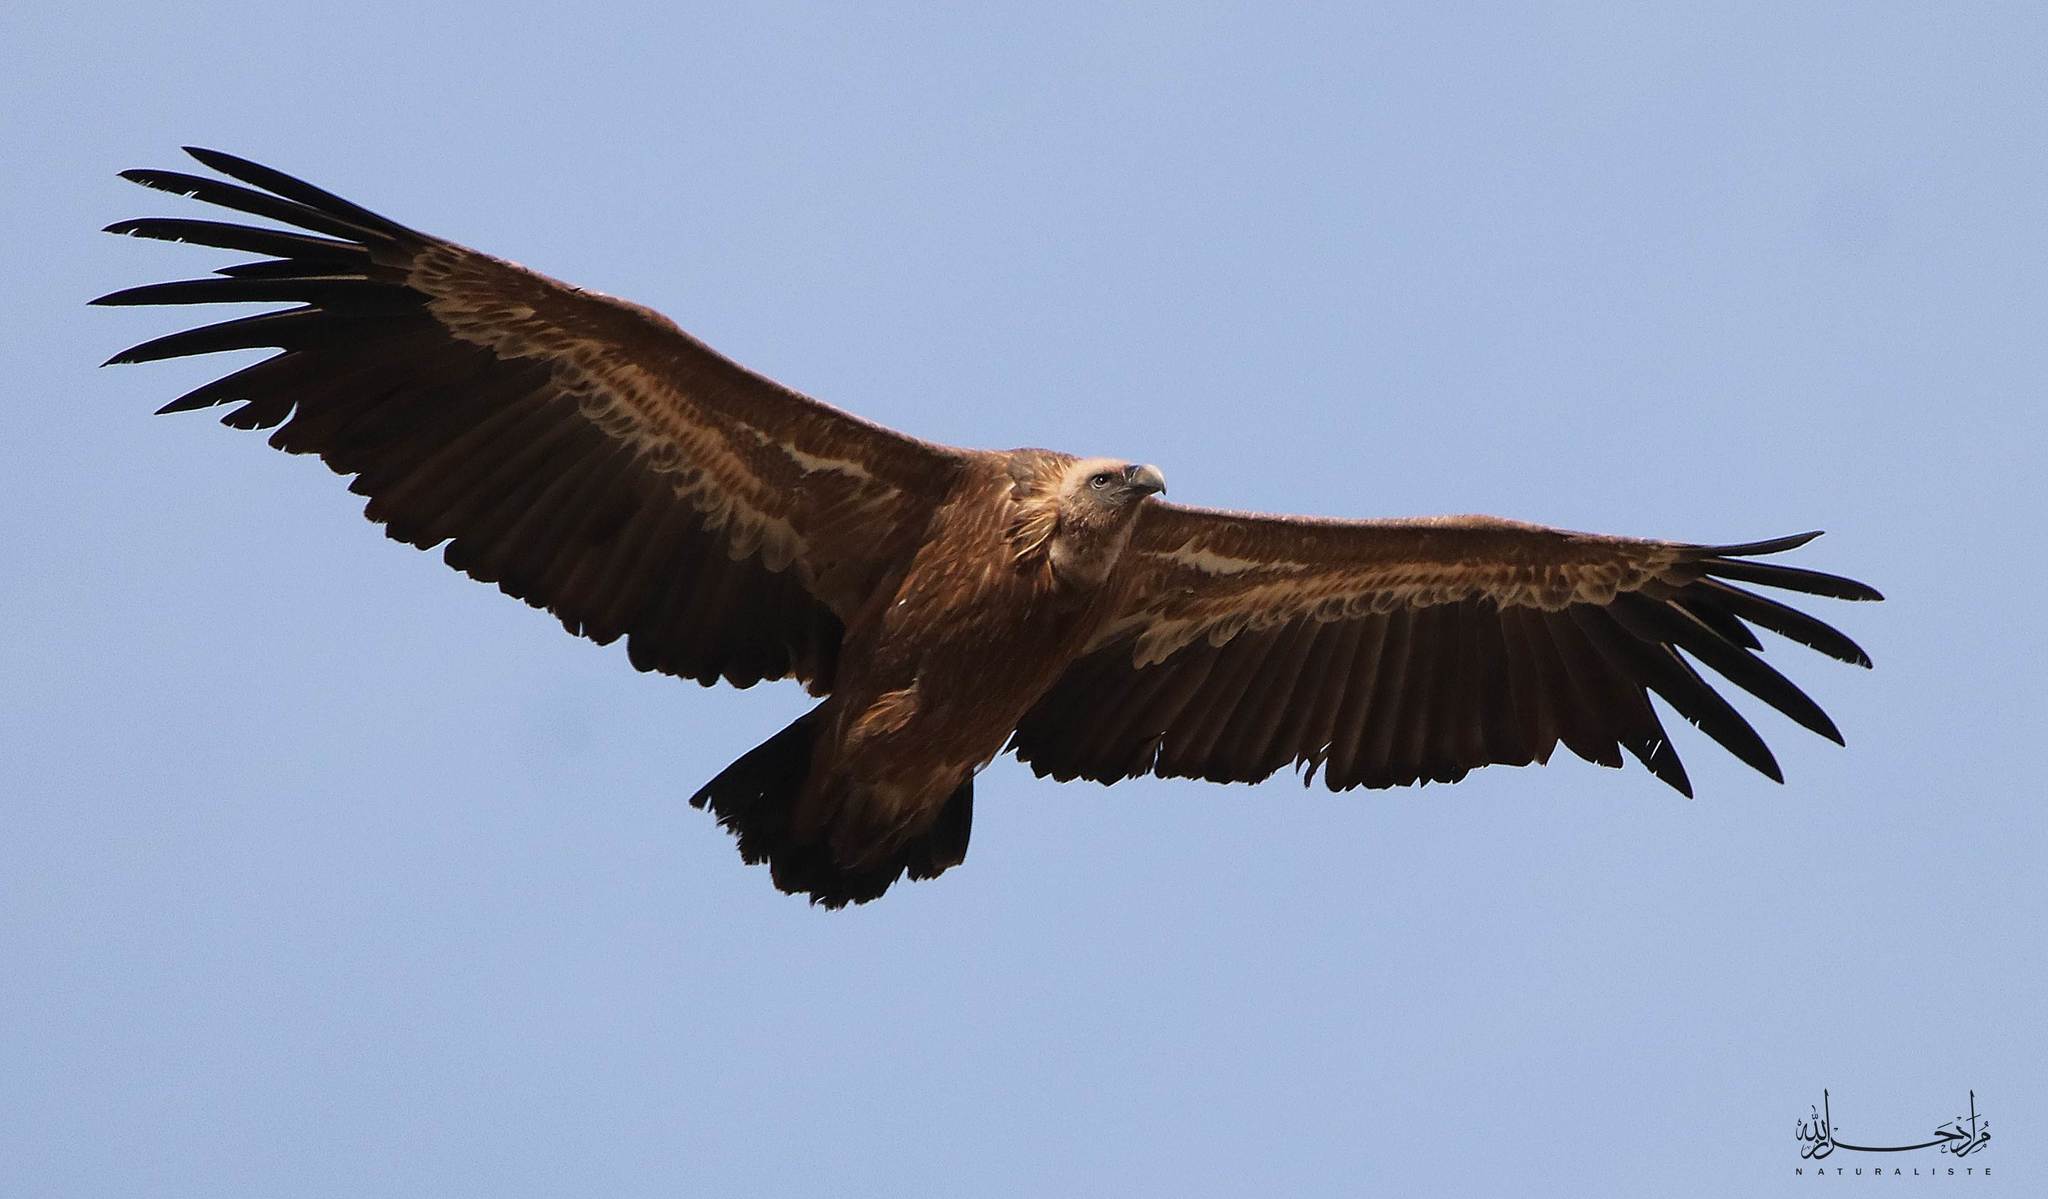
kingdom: Animalia
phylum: Chordata
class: Aves
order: Accipitriformes
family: Accipitridae
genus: Gyps
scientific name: Gyps fulvus
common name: Griffon vulture
